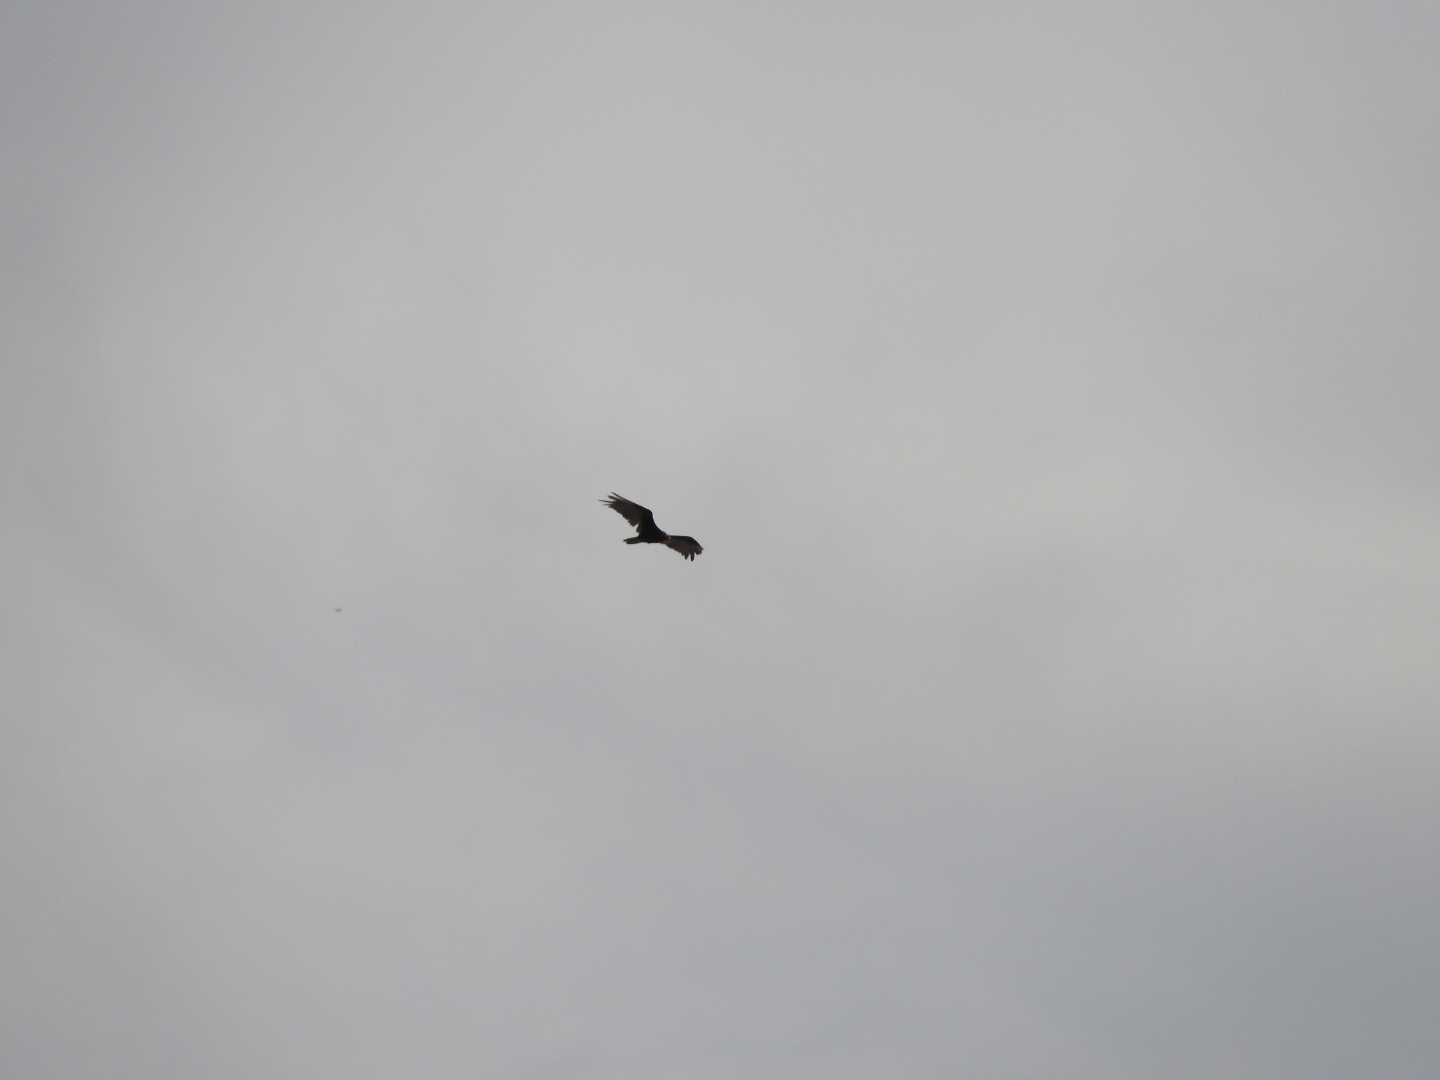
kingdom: Animalia
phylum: Chordata
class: Aves
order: Accipitriformes
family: Cathartidae
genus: Cathartes
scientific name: Cathartes aura
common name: Turkey vulture
